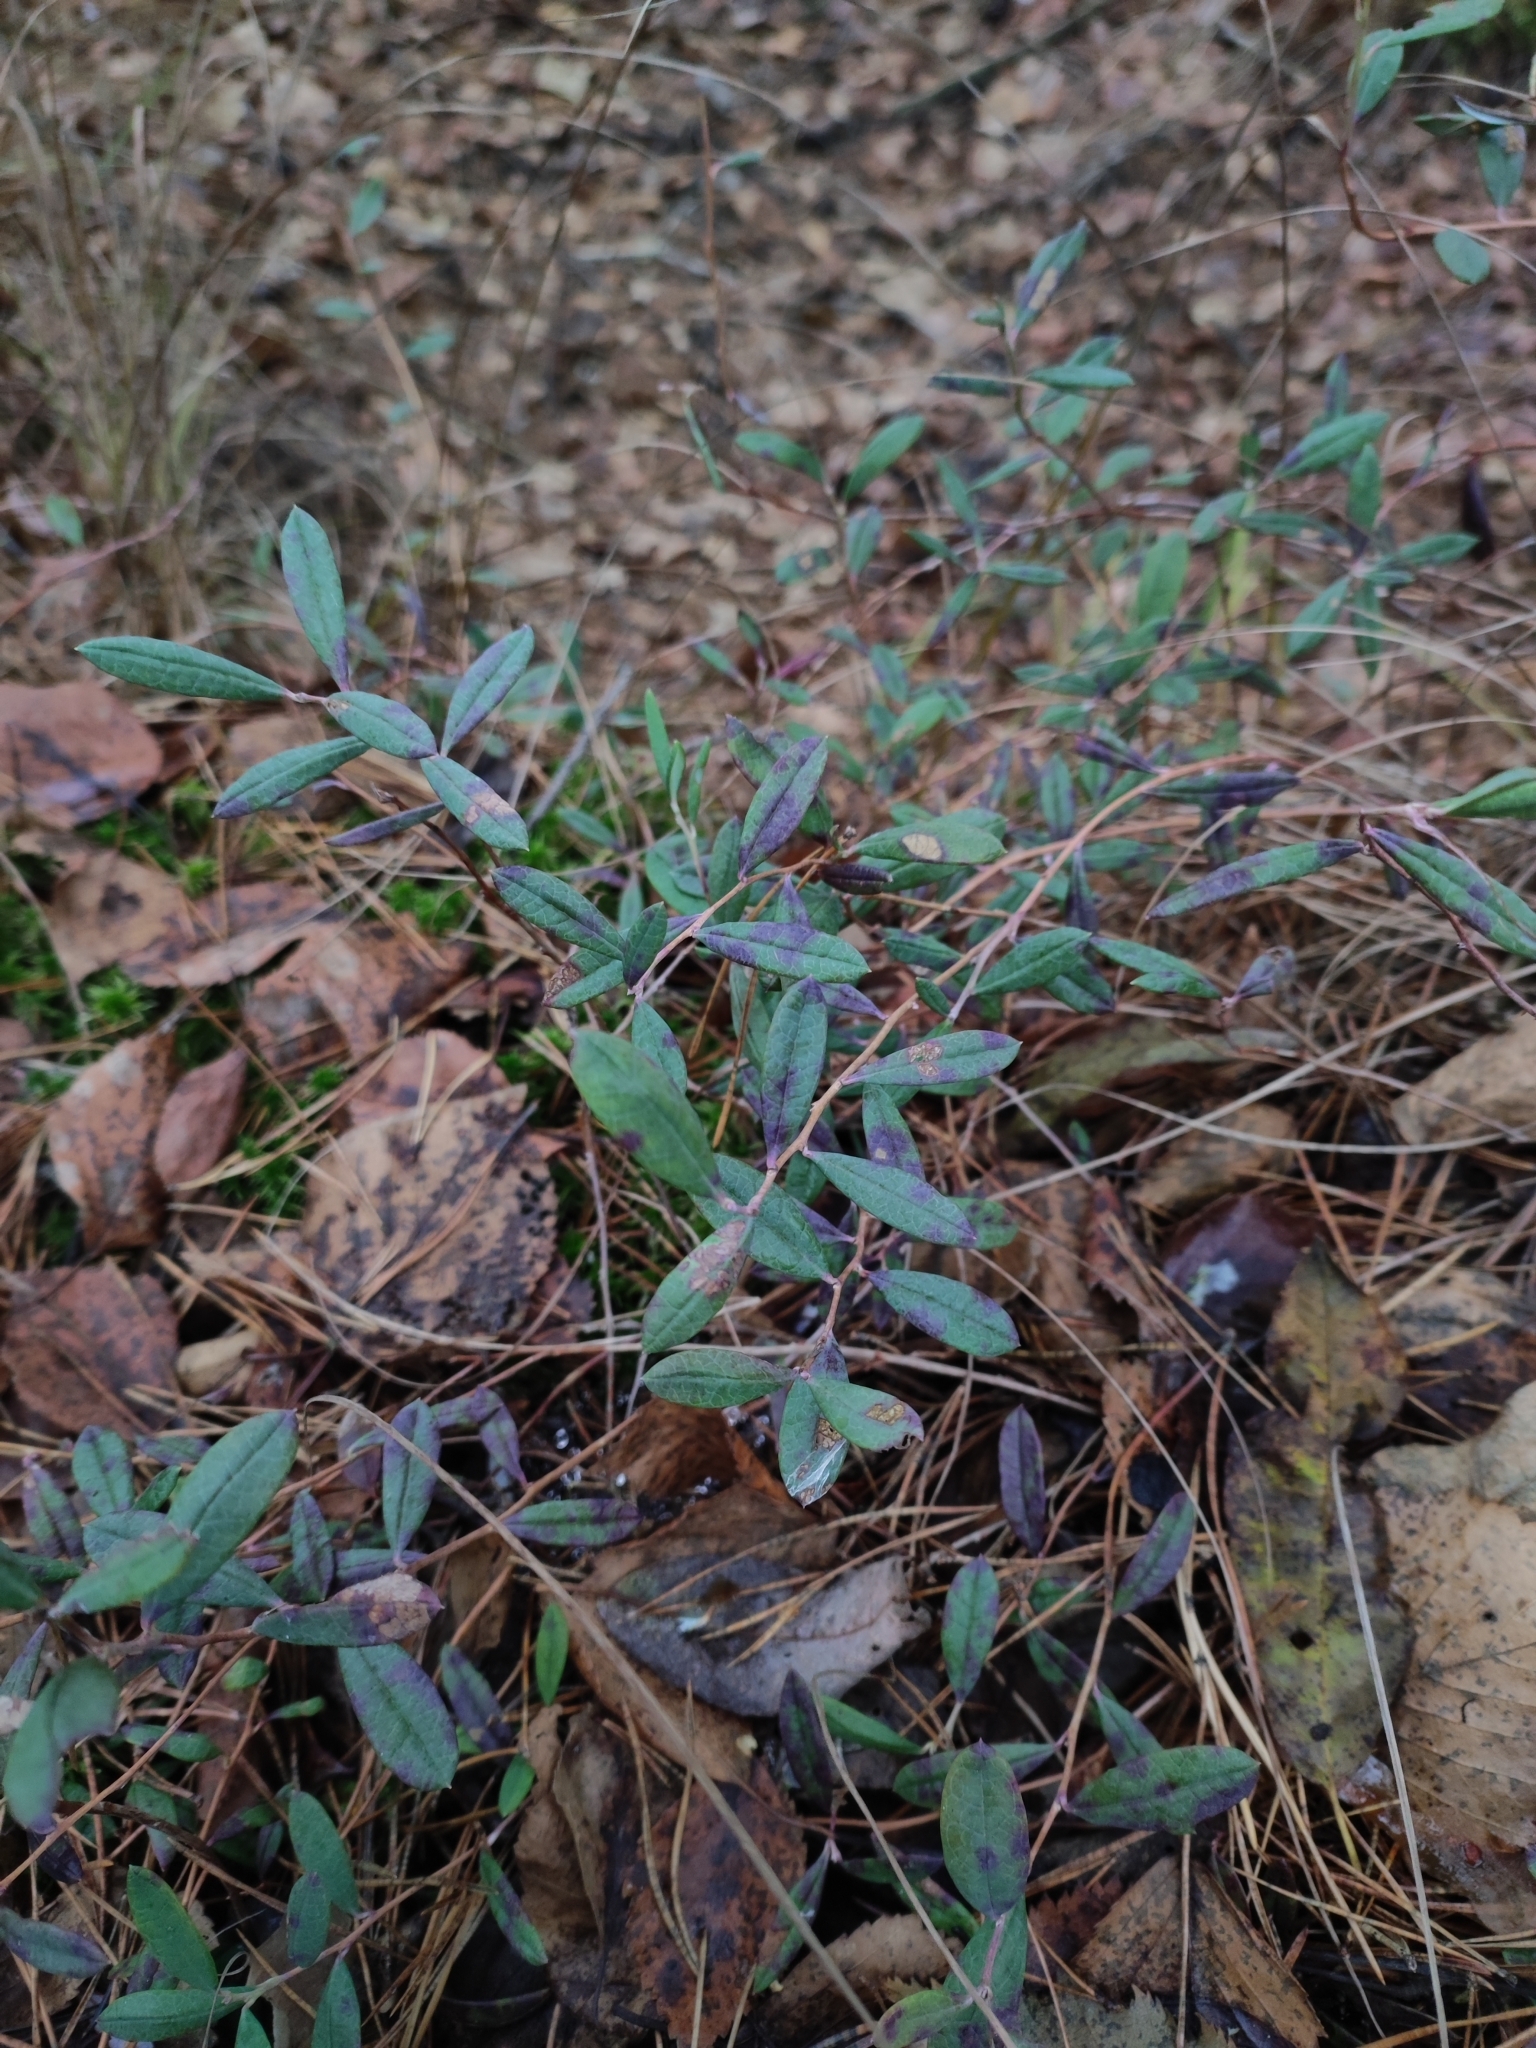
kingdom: Plantae
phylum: Tracheophyta
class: Magnoliopsida
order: Ericales
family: Ericaceae
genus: Andromeda
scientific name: Andromeda polifolia
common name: Bog-rosemary
